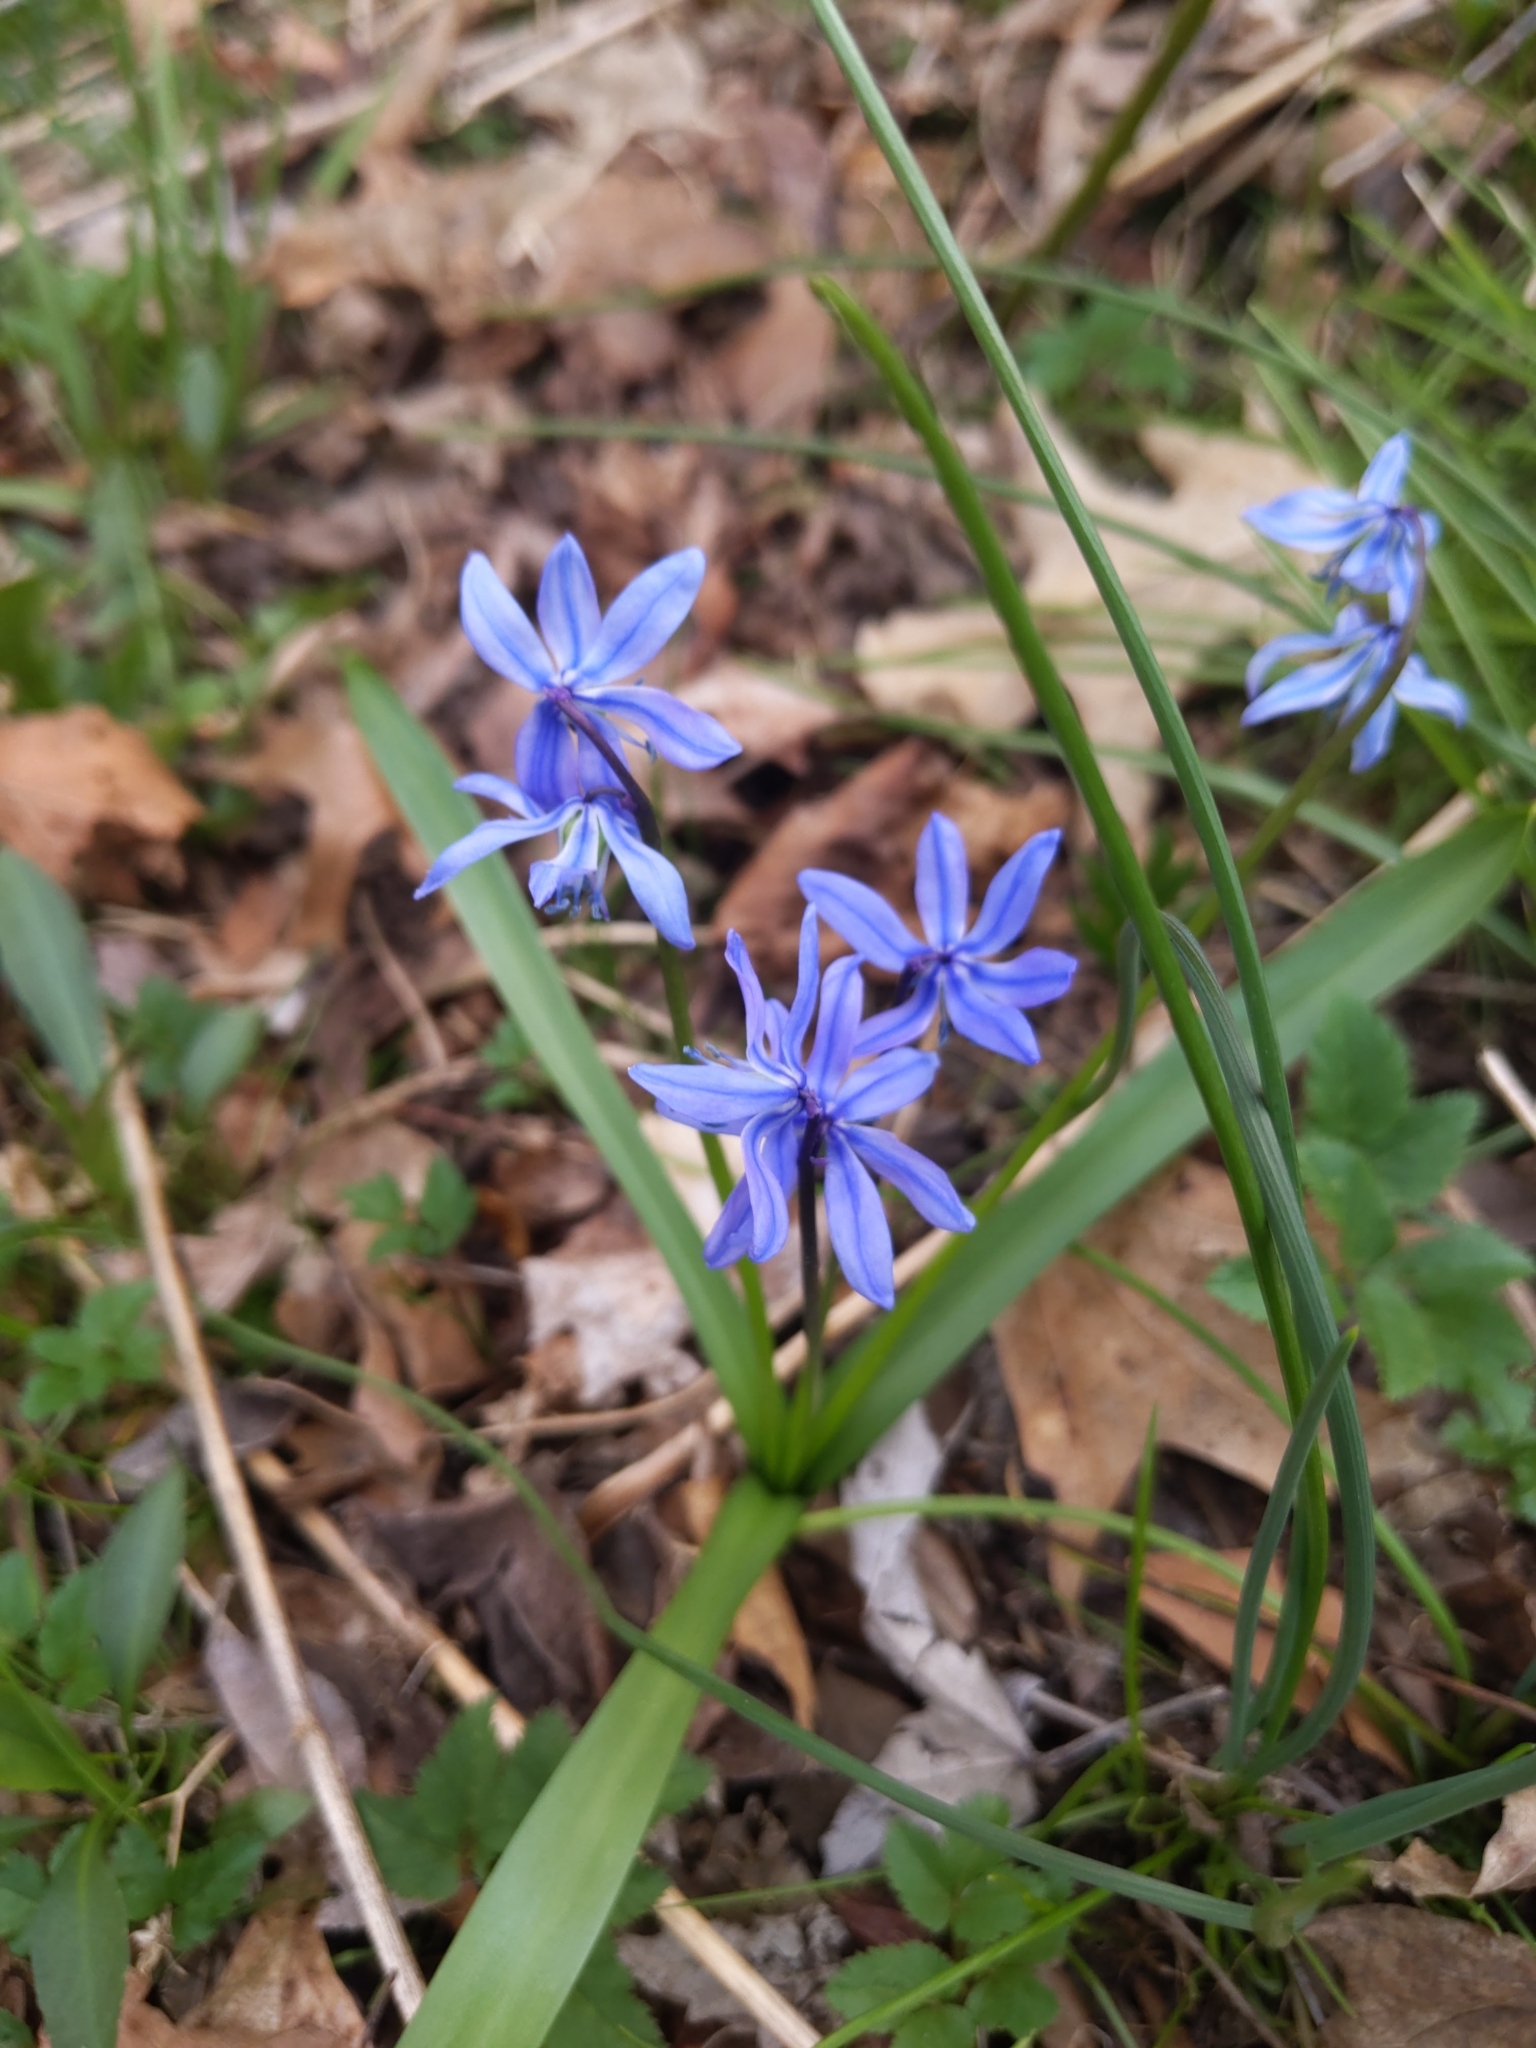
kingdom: Plantae
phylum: Tracheophyta
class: Liliopsida
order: Asparagales
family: Asparagaceae
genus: Scilla
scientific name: Scilla siberica
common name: Siberian squill
